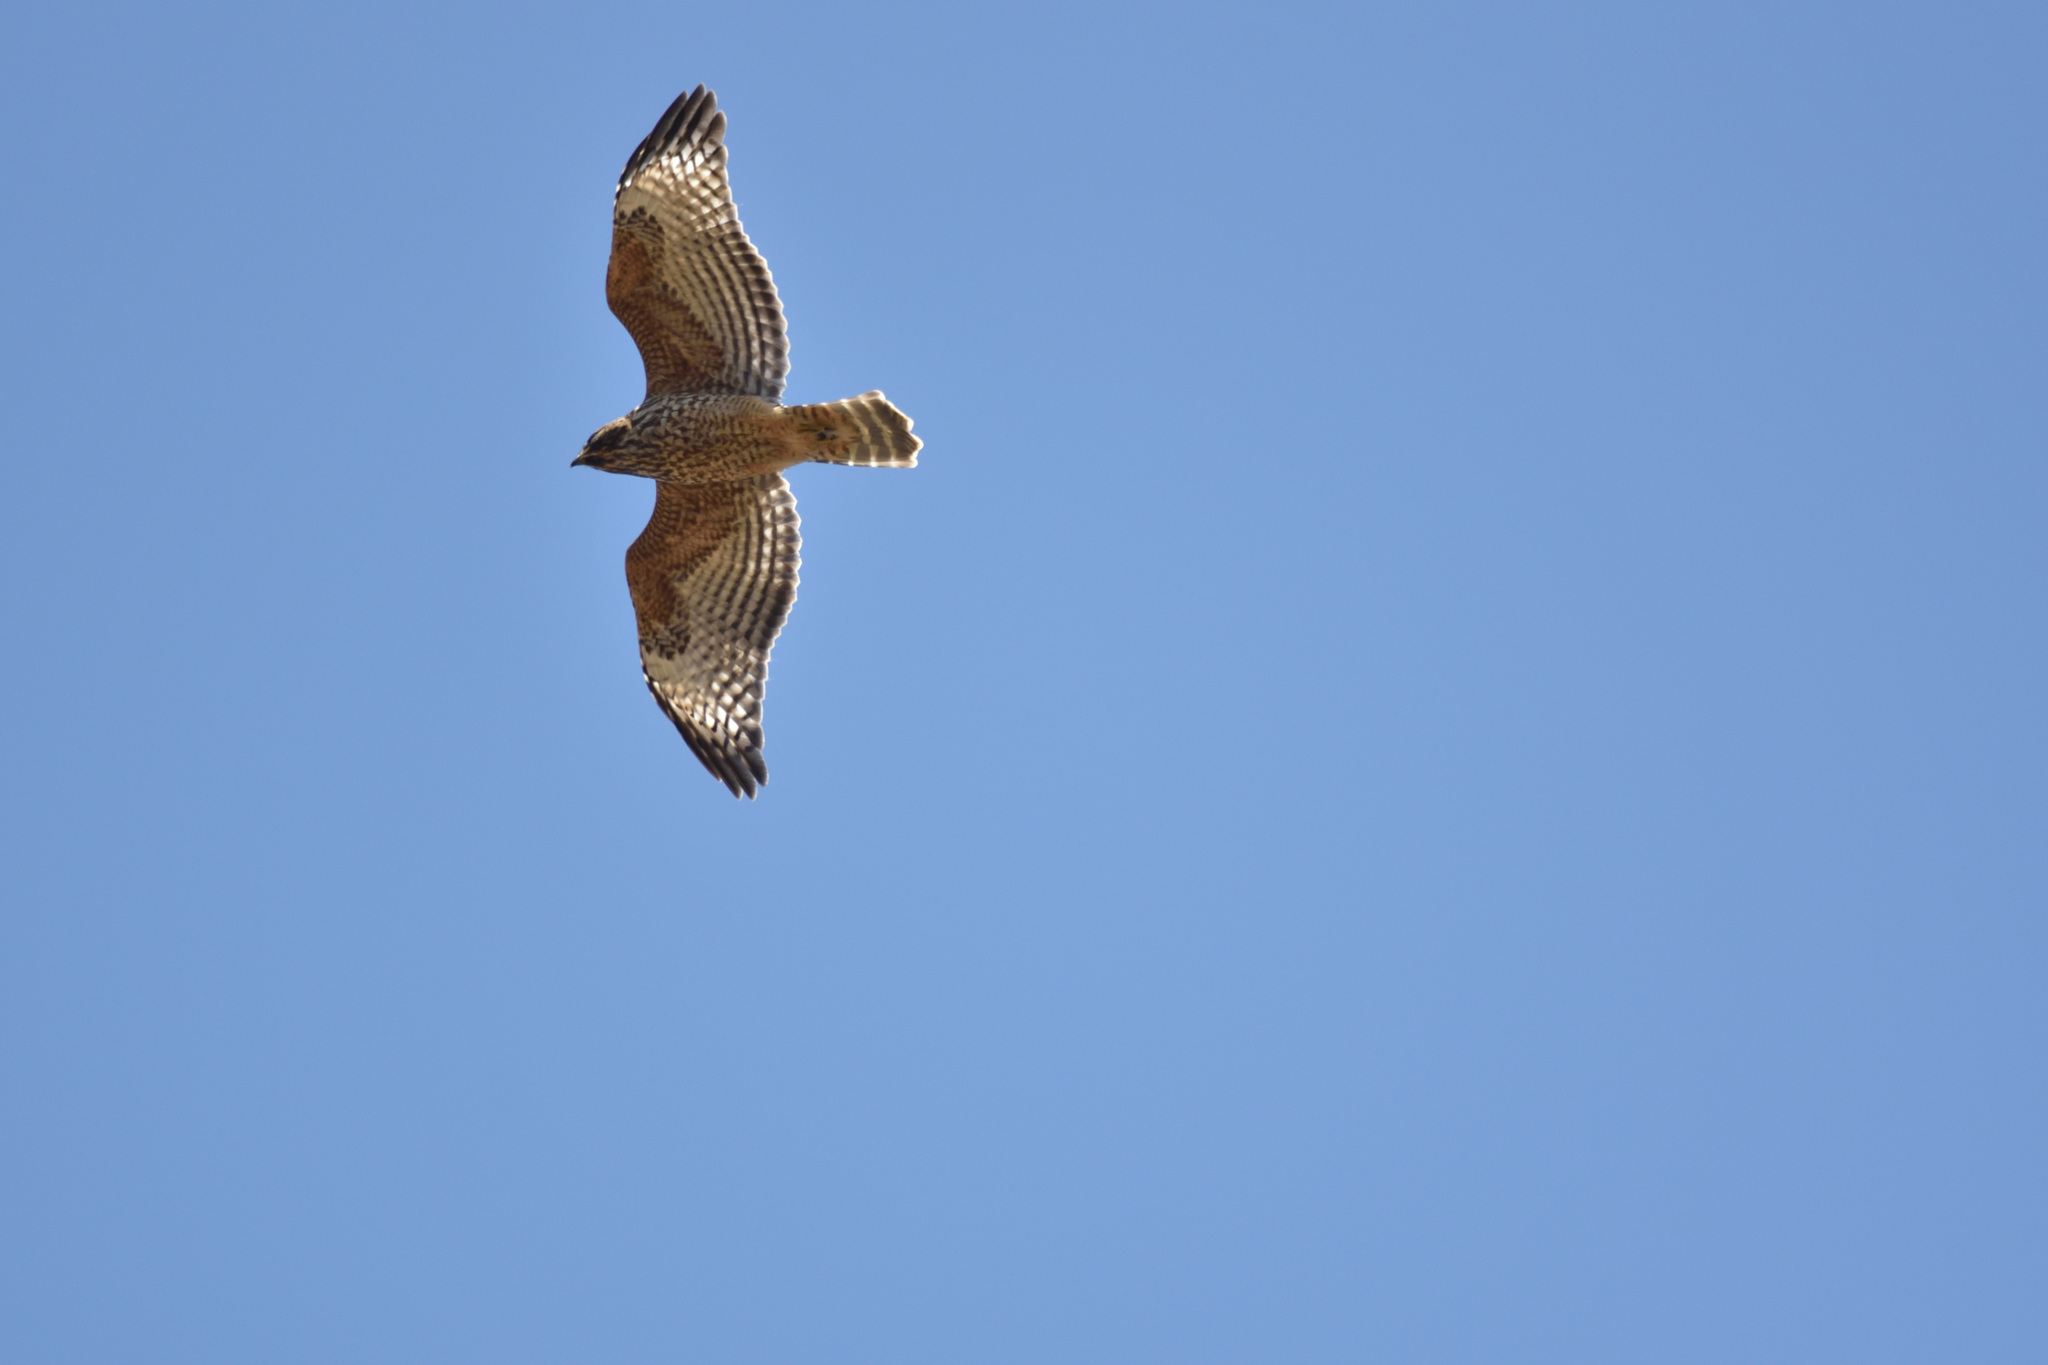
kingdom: Animalia
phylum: Chordata
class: Aves
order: Accipitriformes
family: Accipitridae
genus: Buteo
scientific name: Buteo lineatus
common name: Red-shouldered hawk
